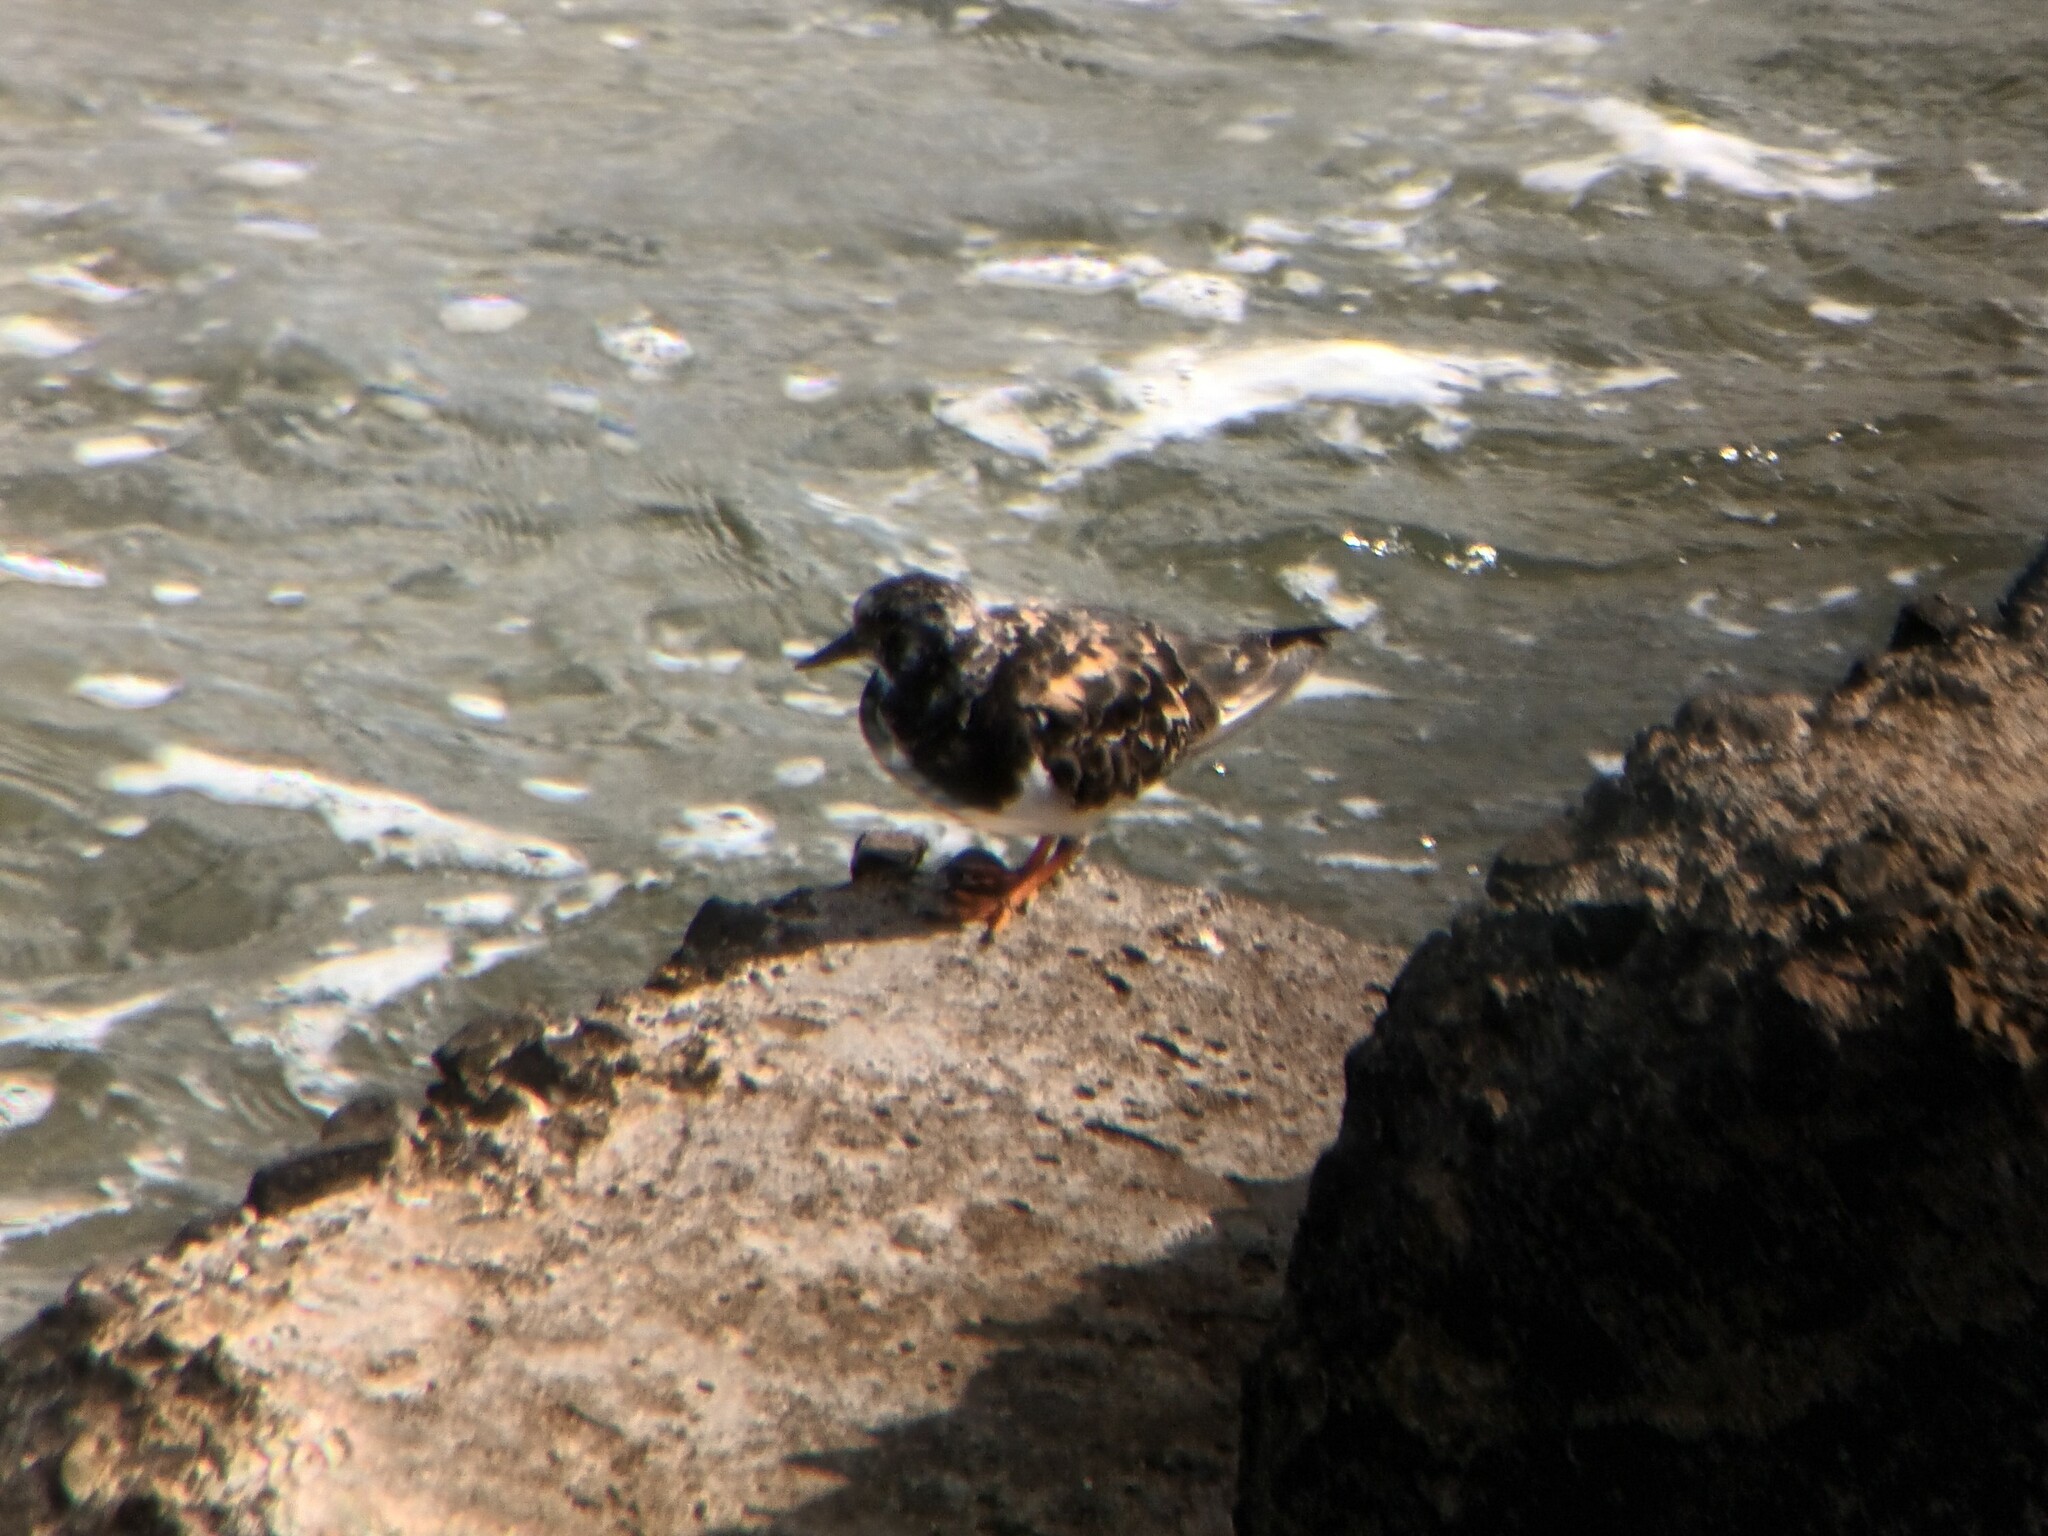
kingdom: Animalia
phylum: Chordata
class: Aves
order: Charadriiformes
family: Scolopacidae
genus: Arenaria
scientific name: Arenaria interpres
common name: Ruddy turnstone
